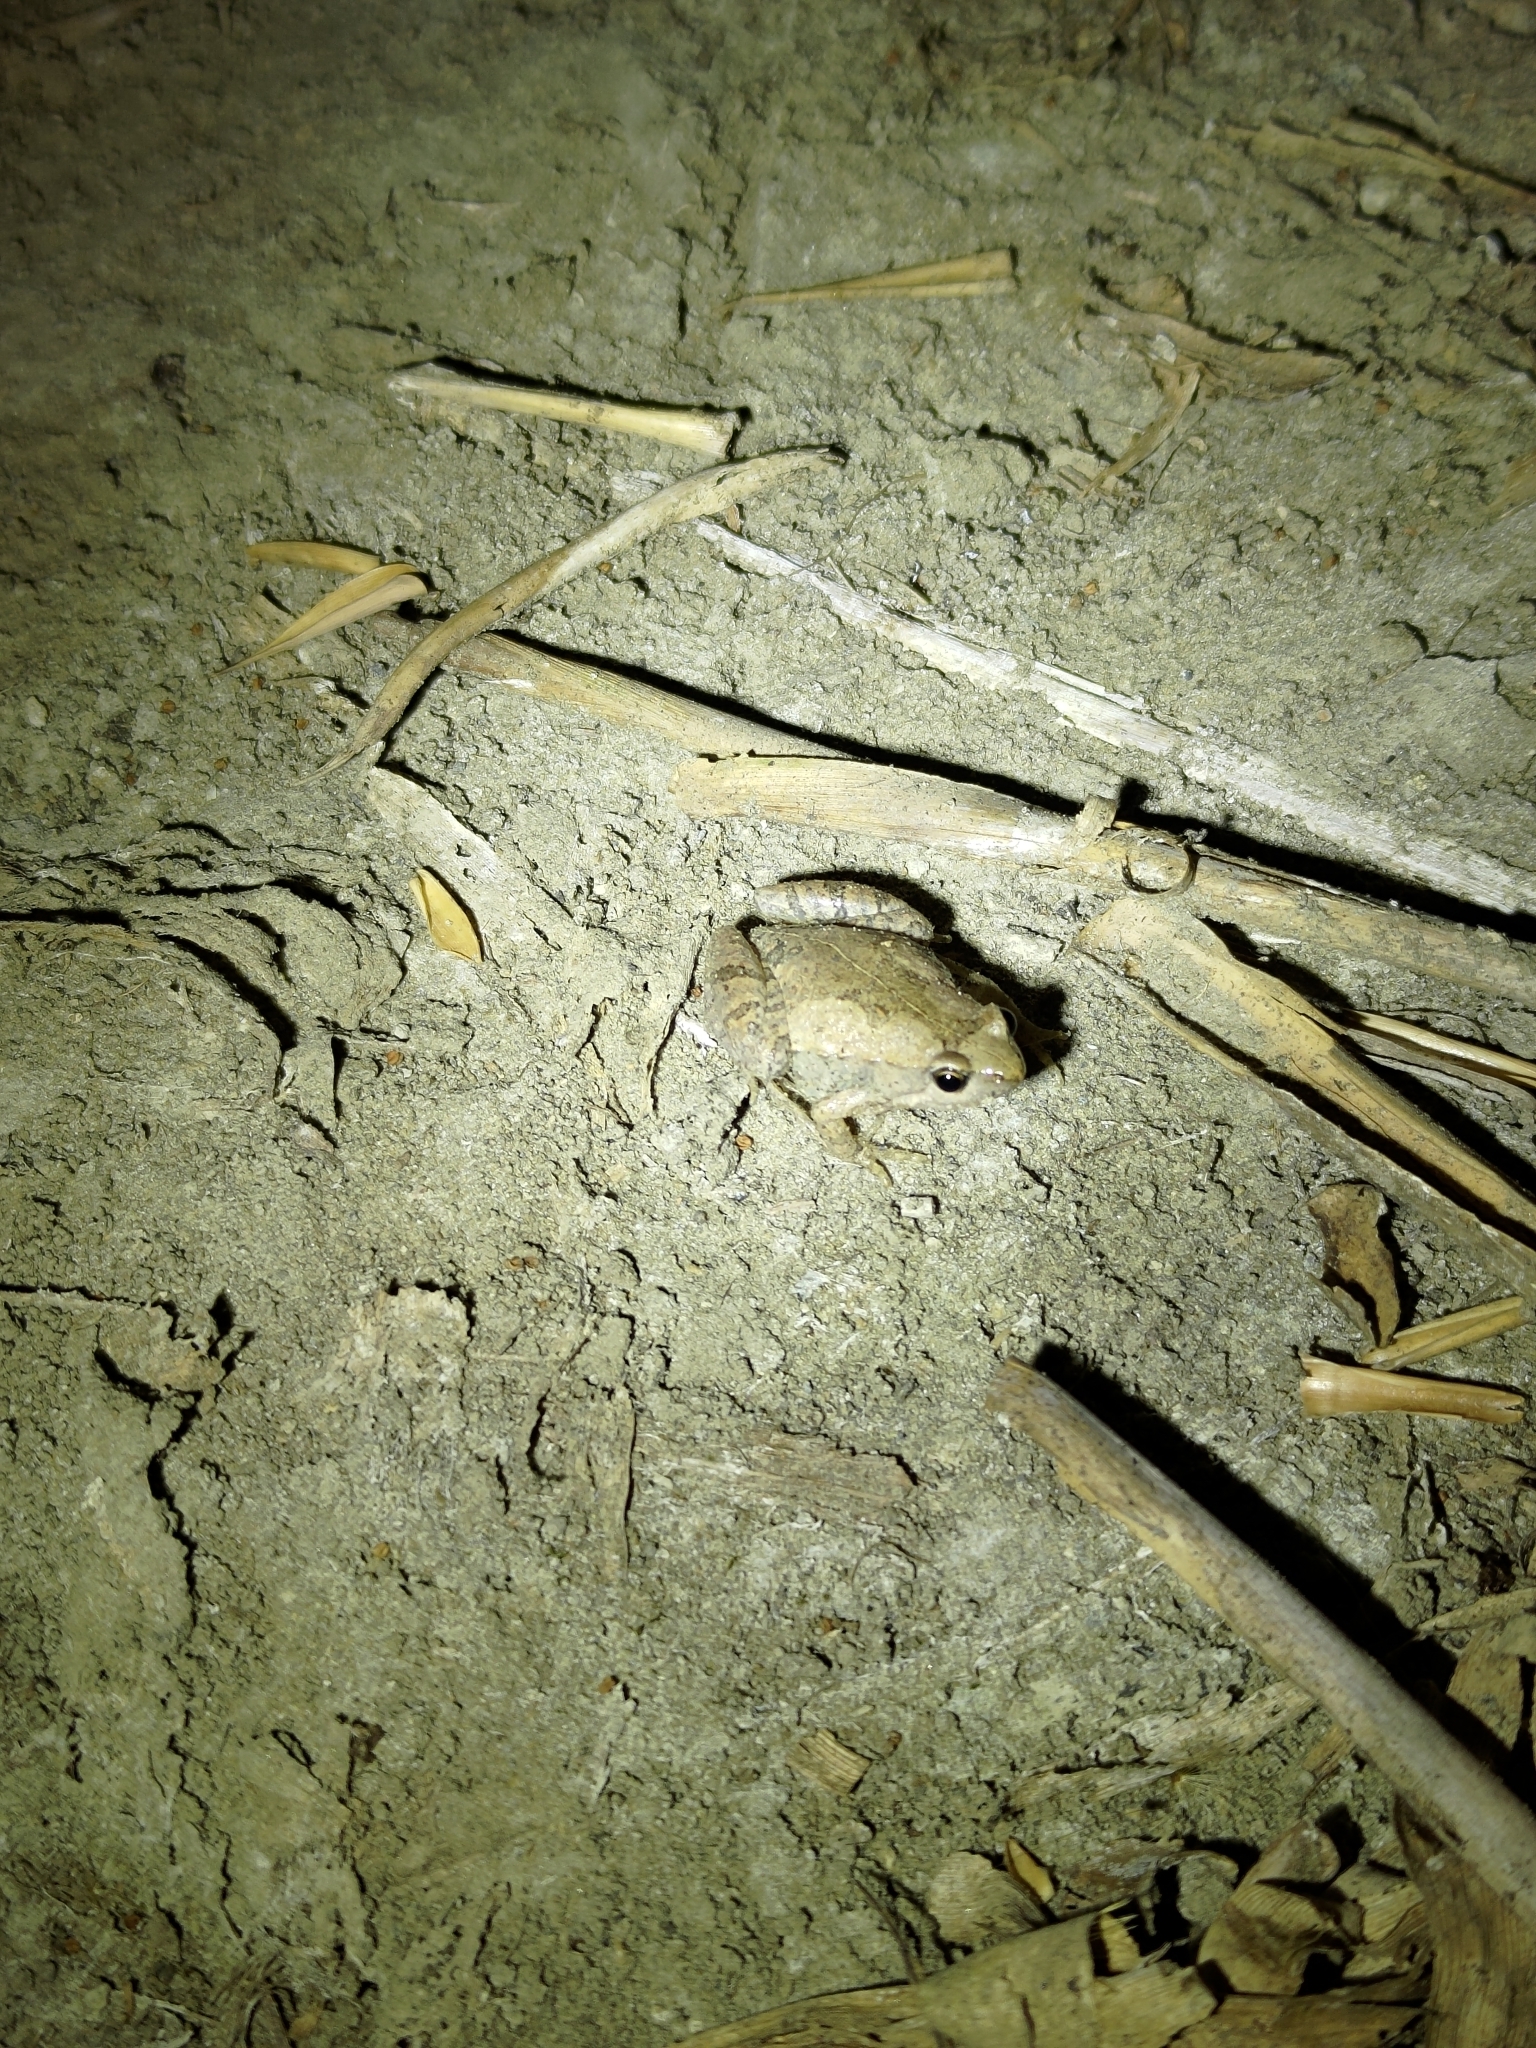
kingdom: Animalia
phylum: Chordata
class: Amphibia
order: Anura
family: Microhylidae
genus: Microhyla
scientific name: Microhyla fissipes
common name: Ornate narrow-mouthed frog
